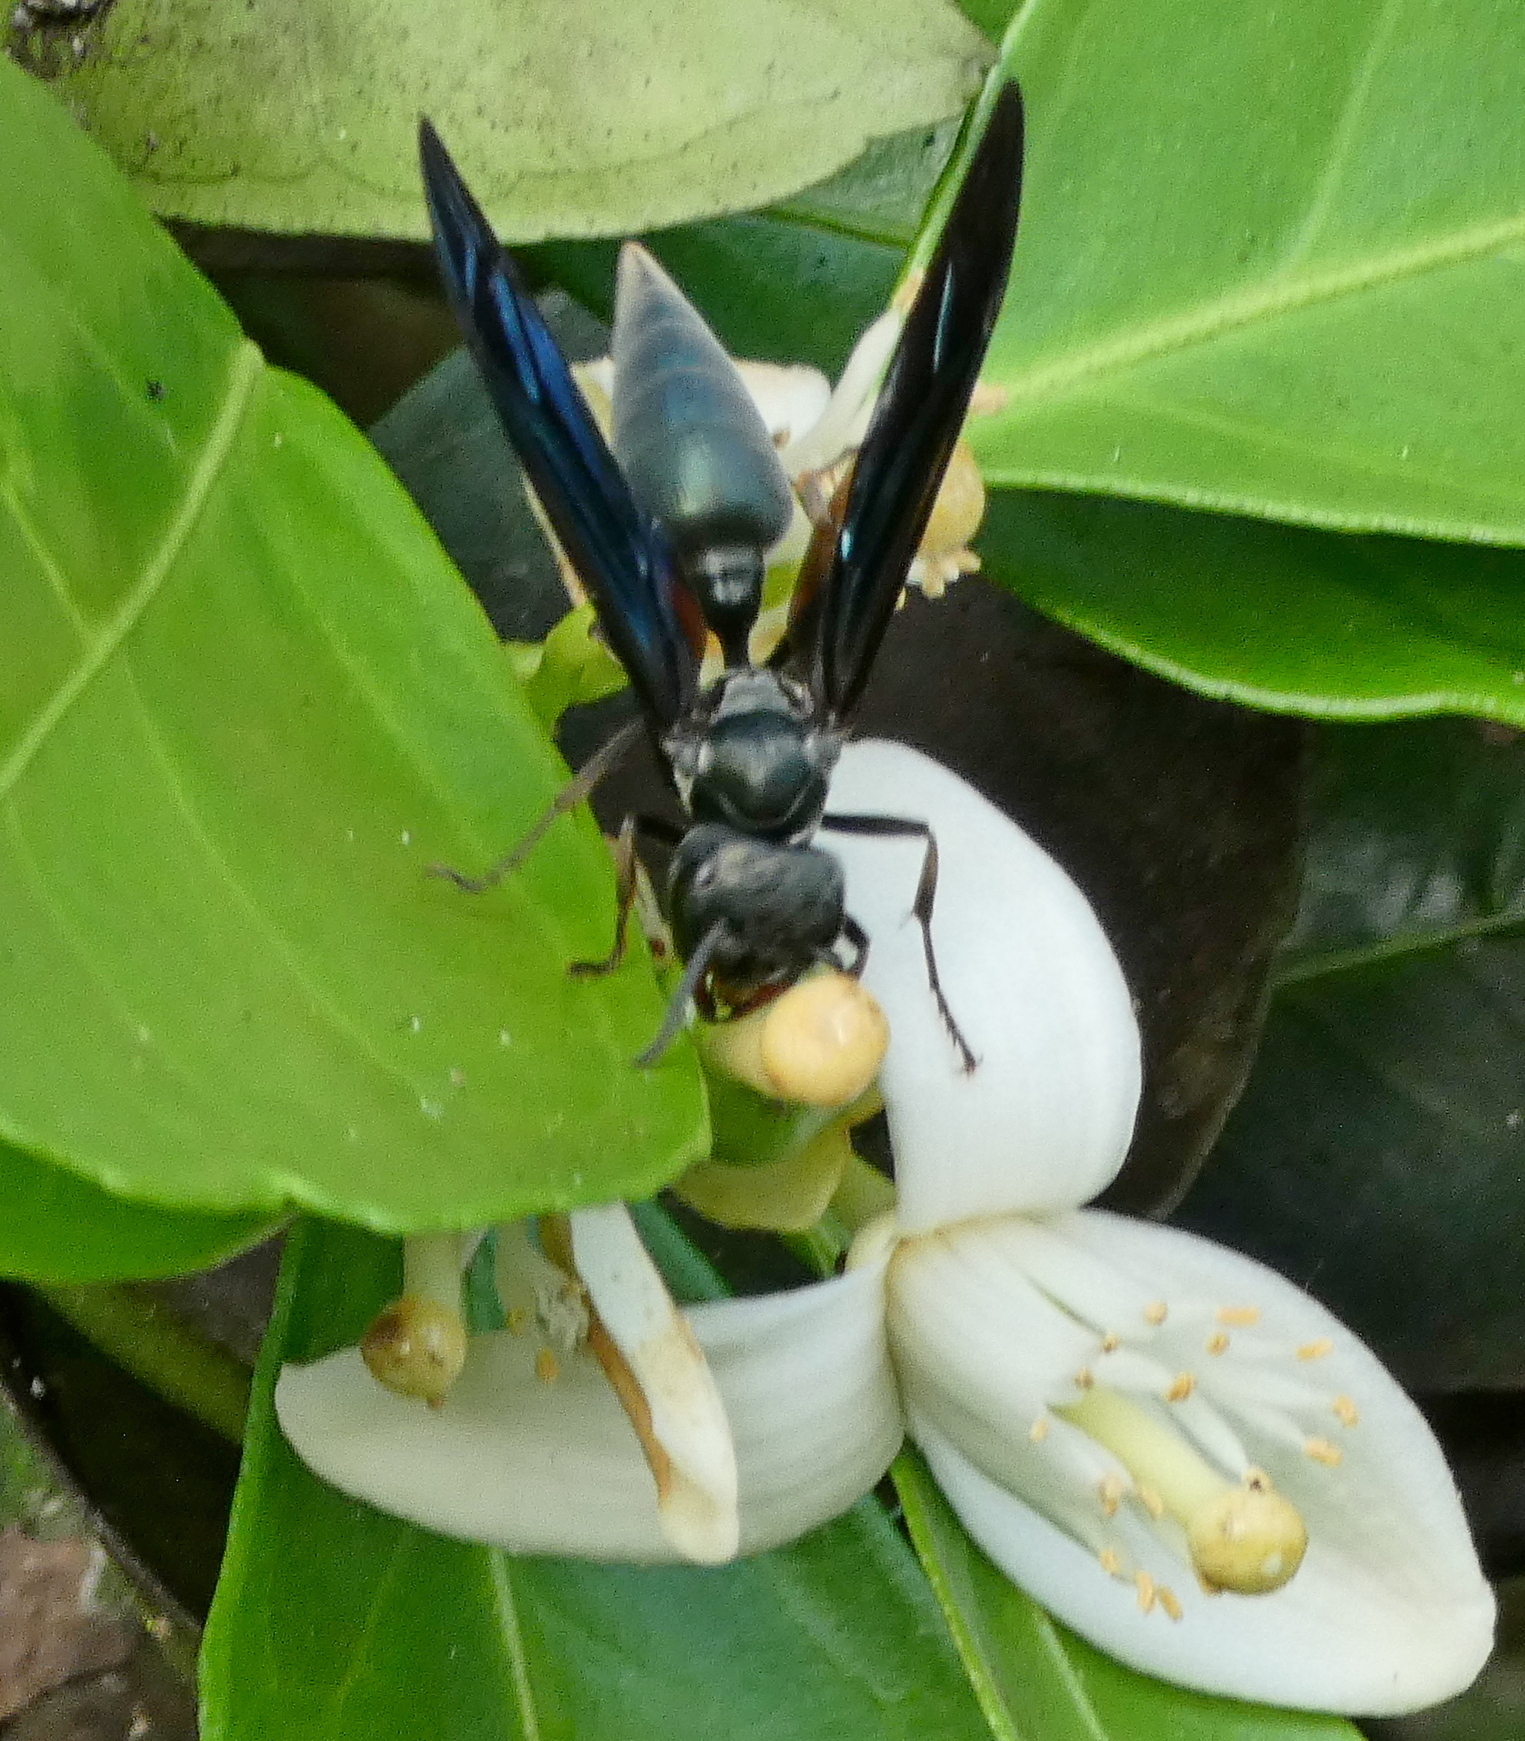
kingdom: Animalia
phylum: Arthropoda
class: Insecta
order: Hymenoptera
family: Vespidae
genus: Synoeca
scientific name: Synoeca ilheensis
